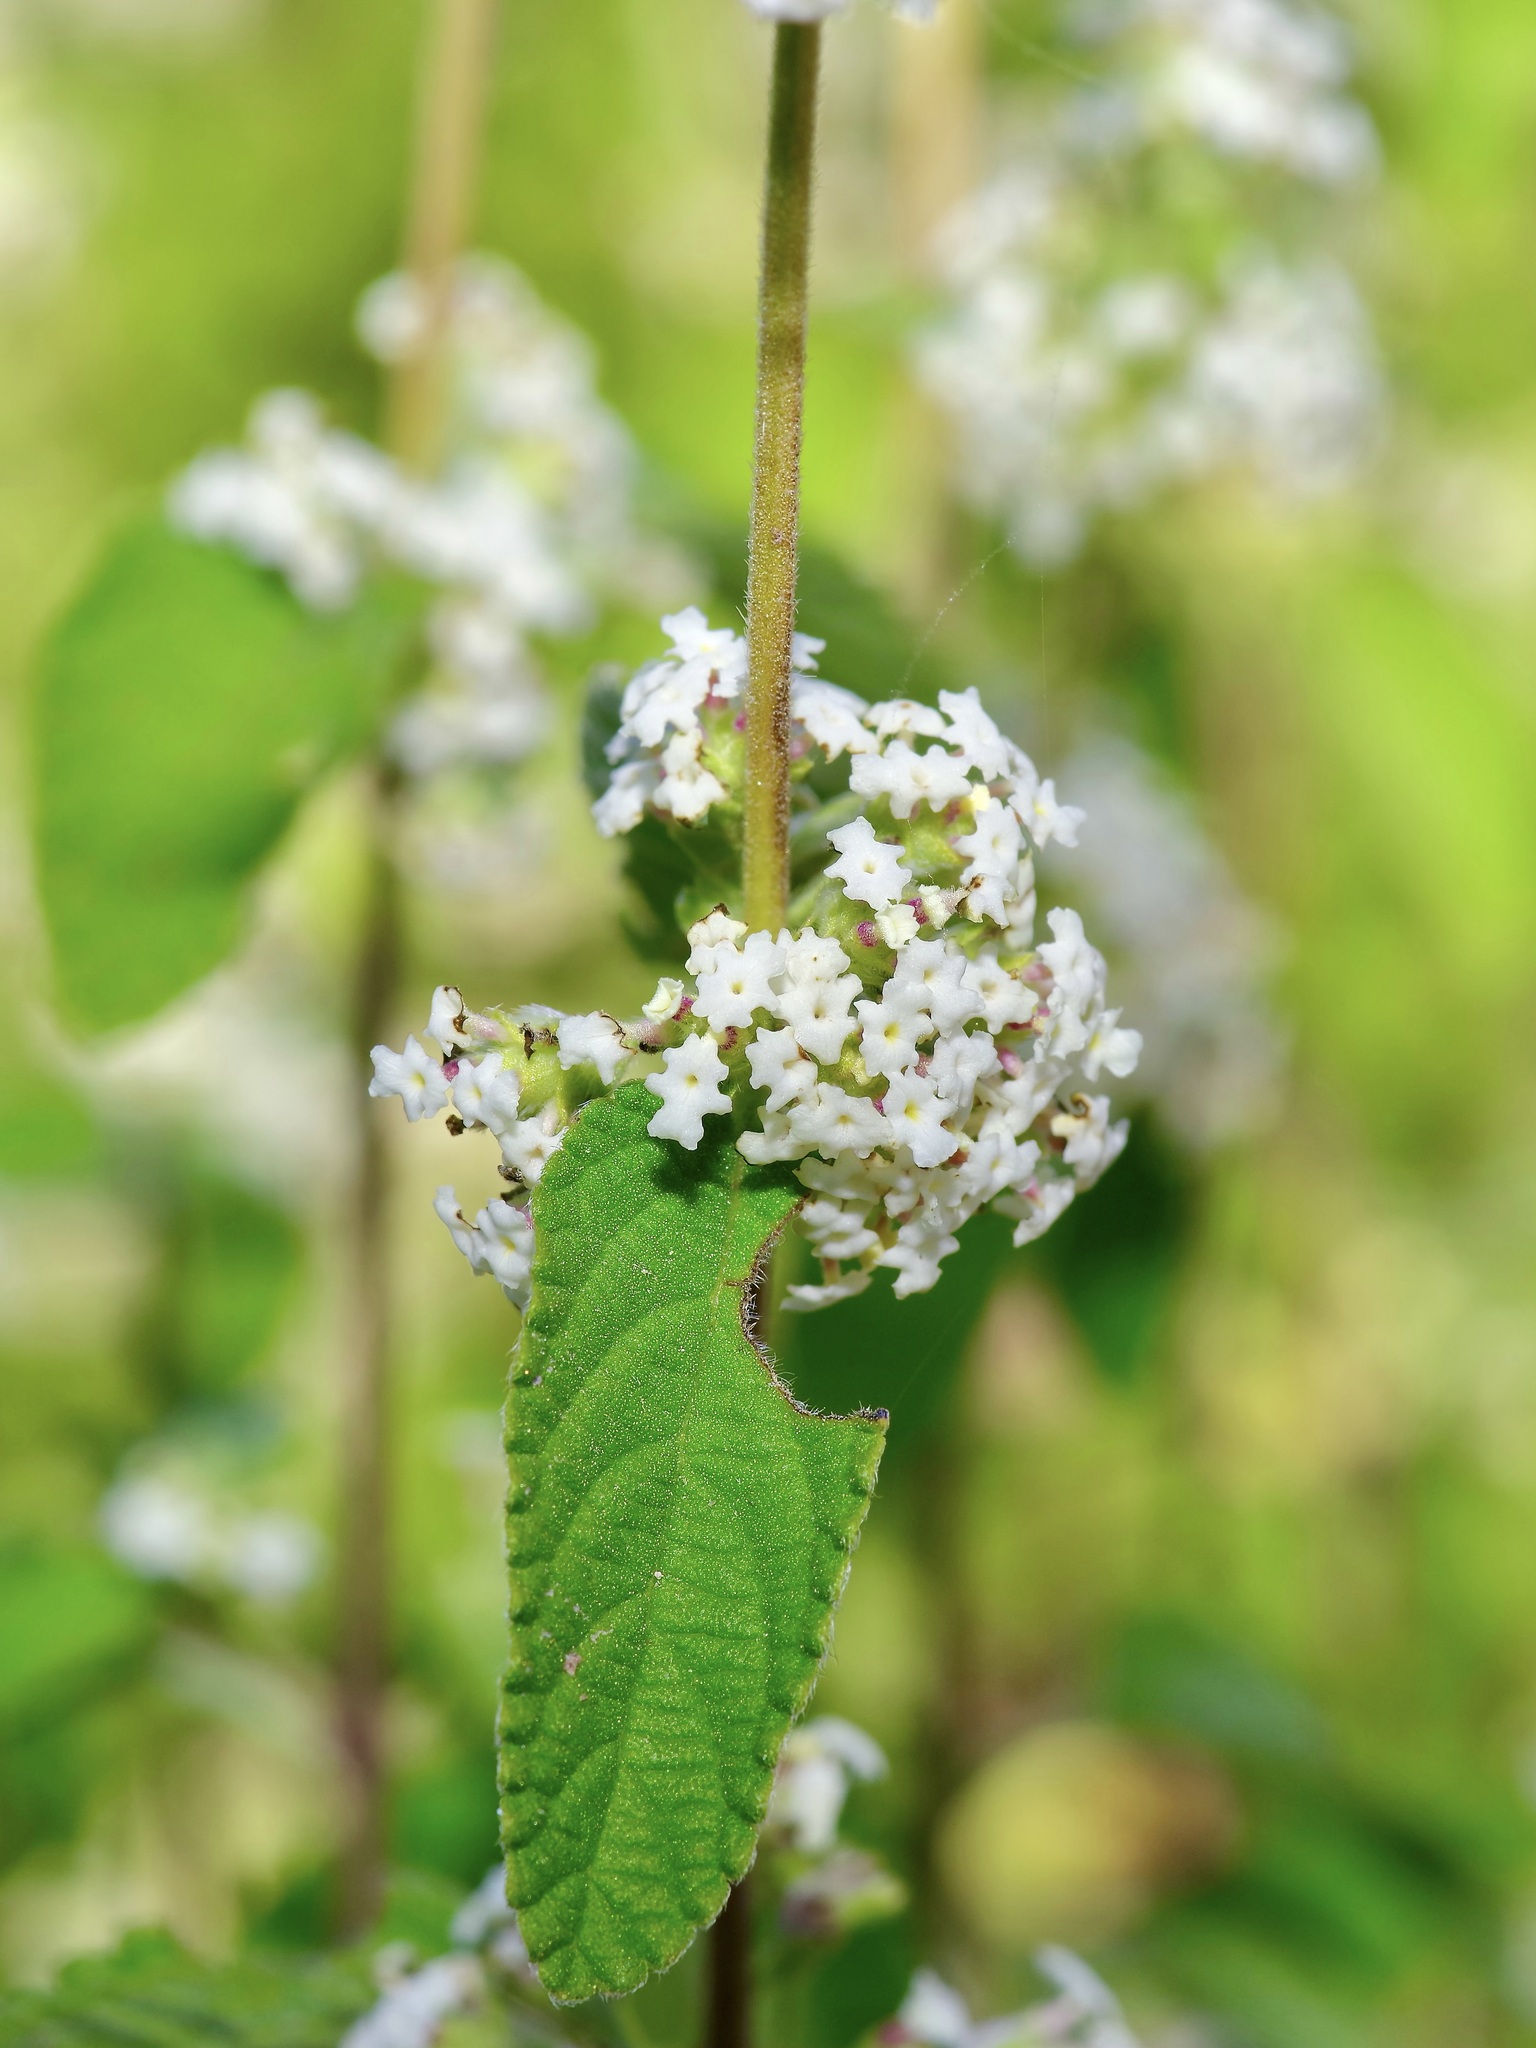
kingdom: Plantae
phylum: Tracheophyta
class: Magnoliopsida
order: Lamiales
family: Verbenaceae
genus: Lippia
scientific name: Lippia origanoides
